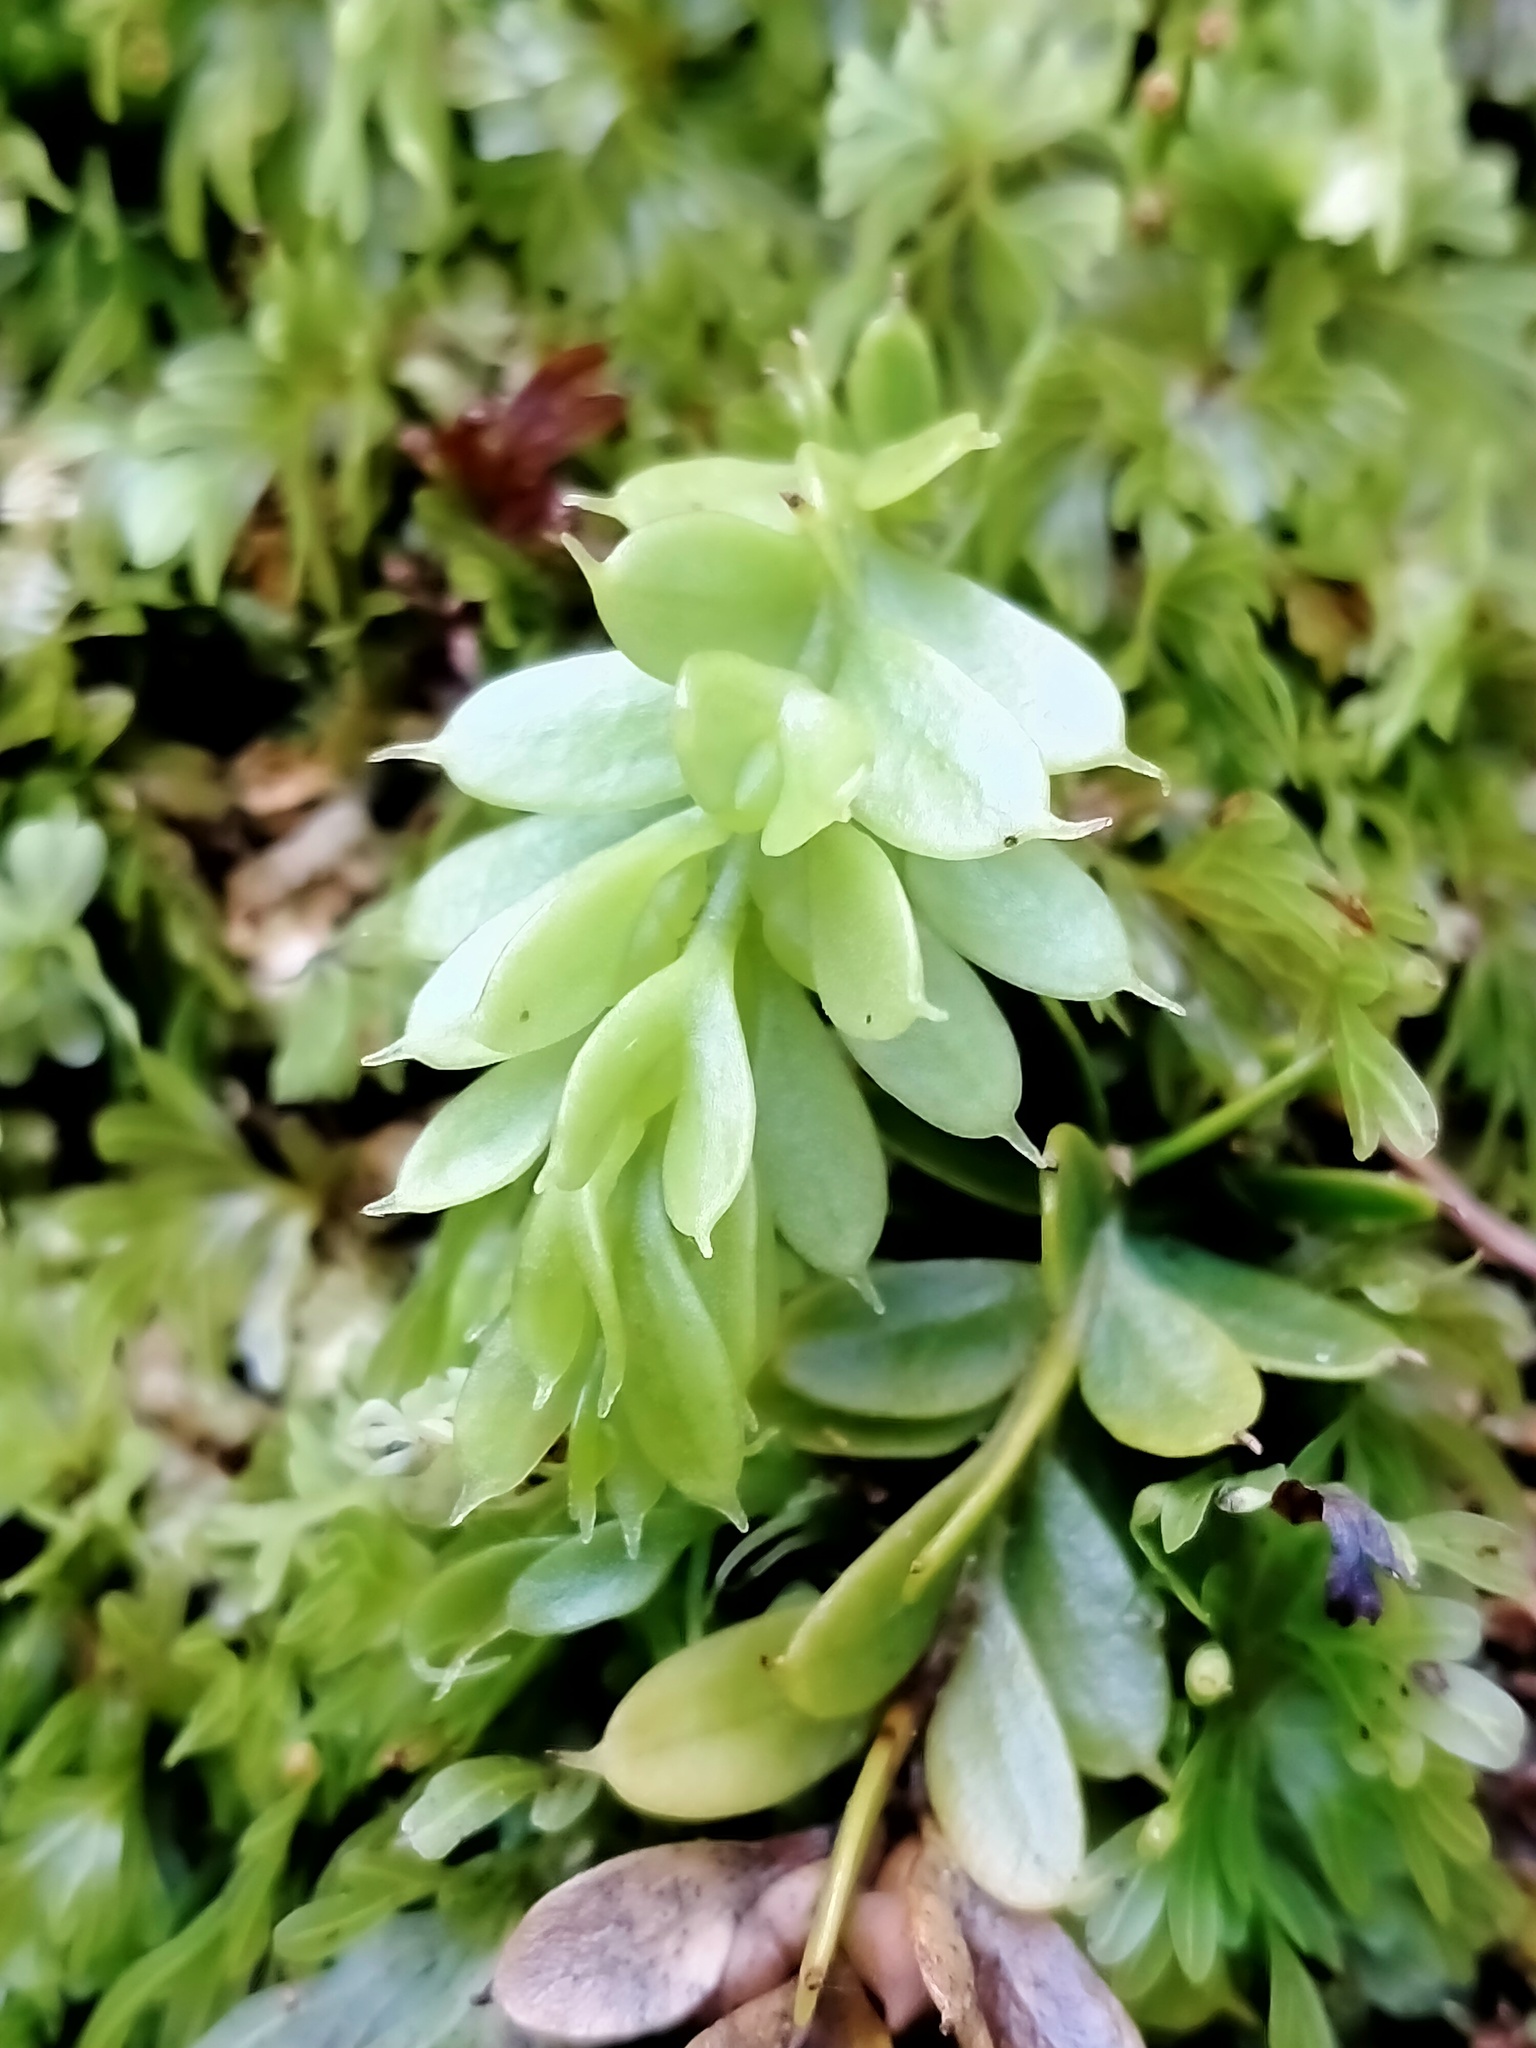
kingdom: Plantae
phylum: Tracheophyta
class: Polypodiopsida
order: Psilotales
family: Psilotaceae
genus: Tmesipteris
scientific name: Tmesipteris tannensis
